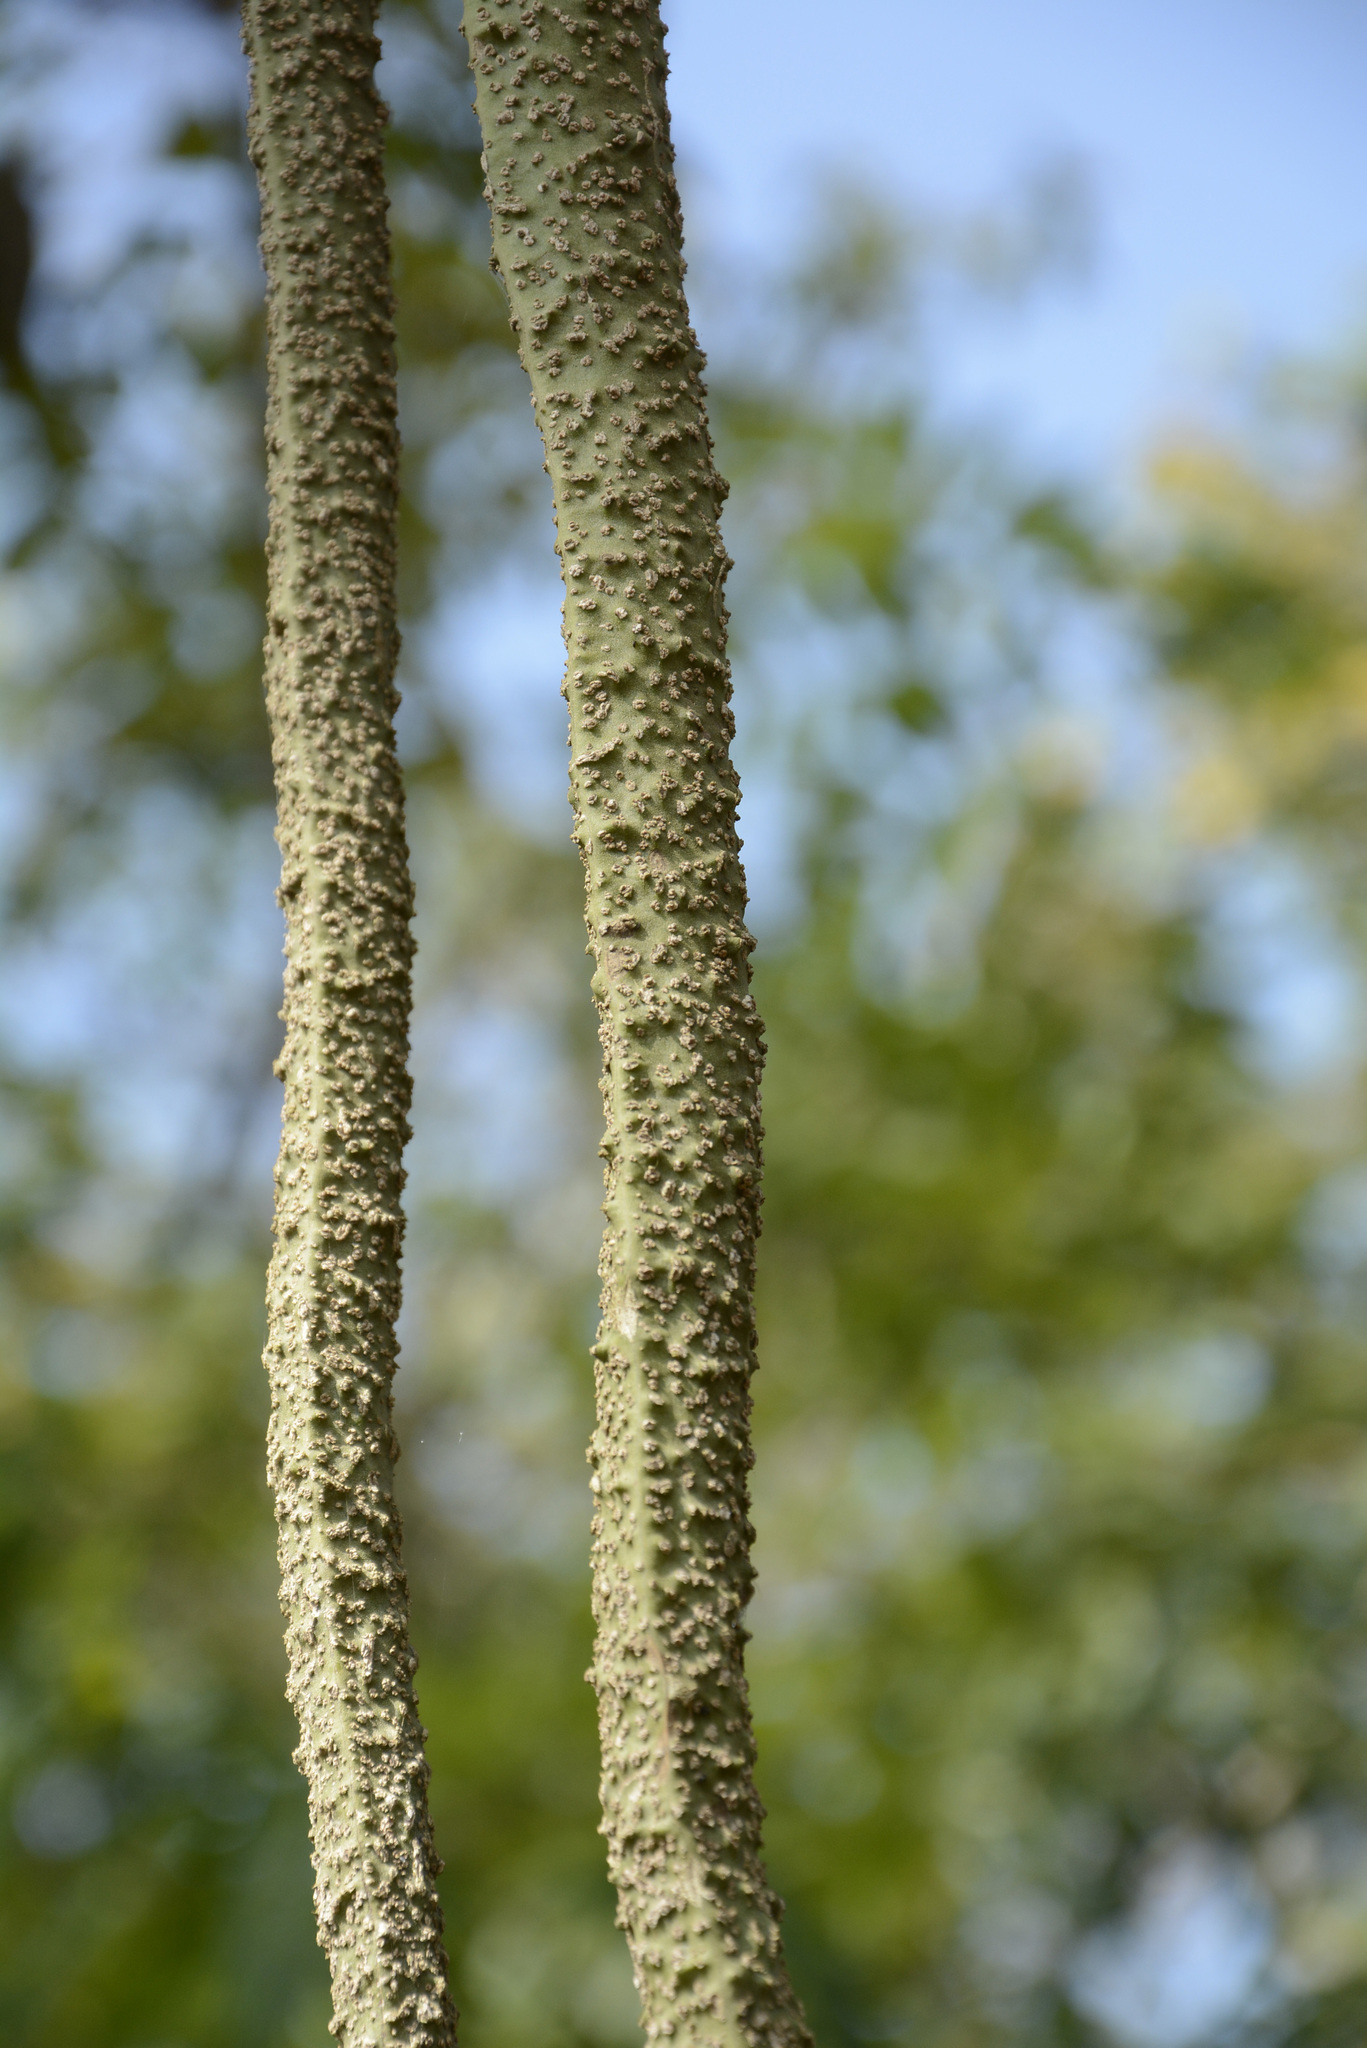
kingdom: Plantae
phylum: Tracheophyta
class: Magnoliopsida
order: Lamiales
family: Bignoniaceae
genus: Radermachera
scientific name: Radermachera xylocarpa
